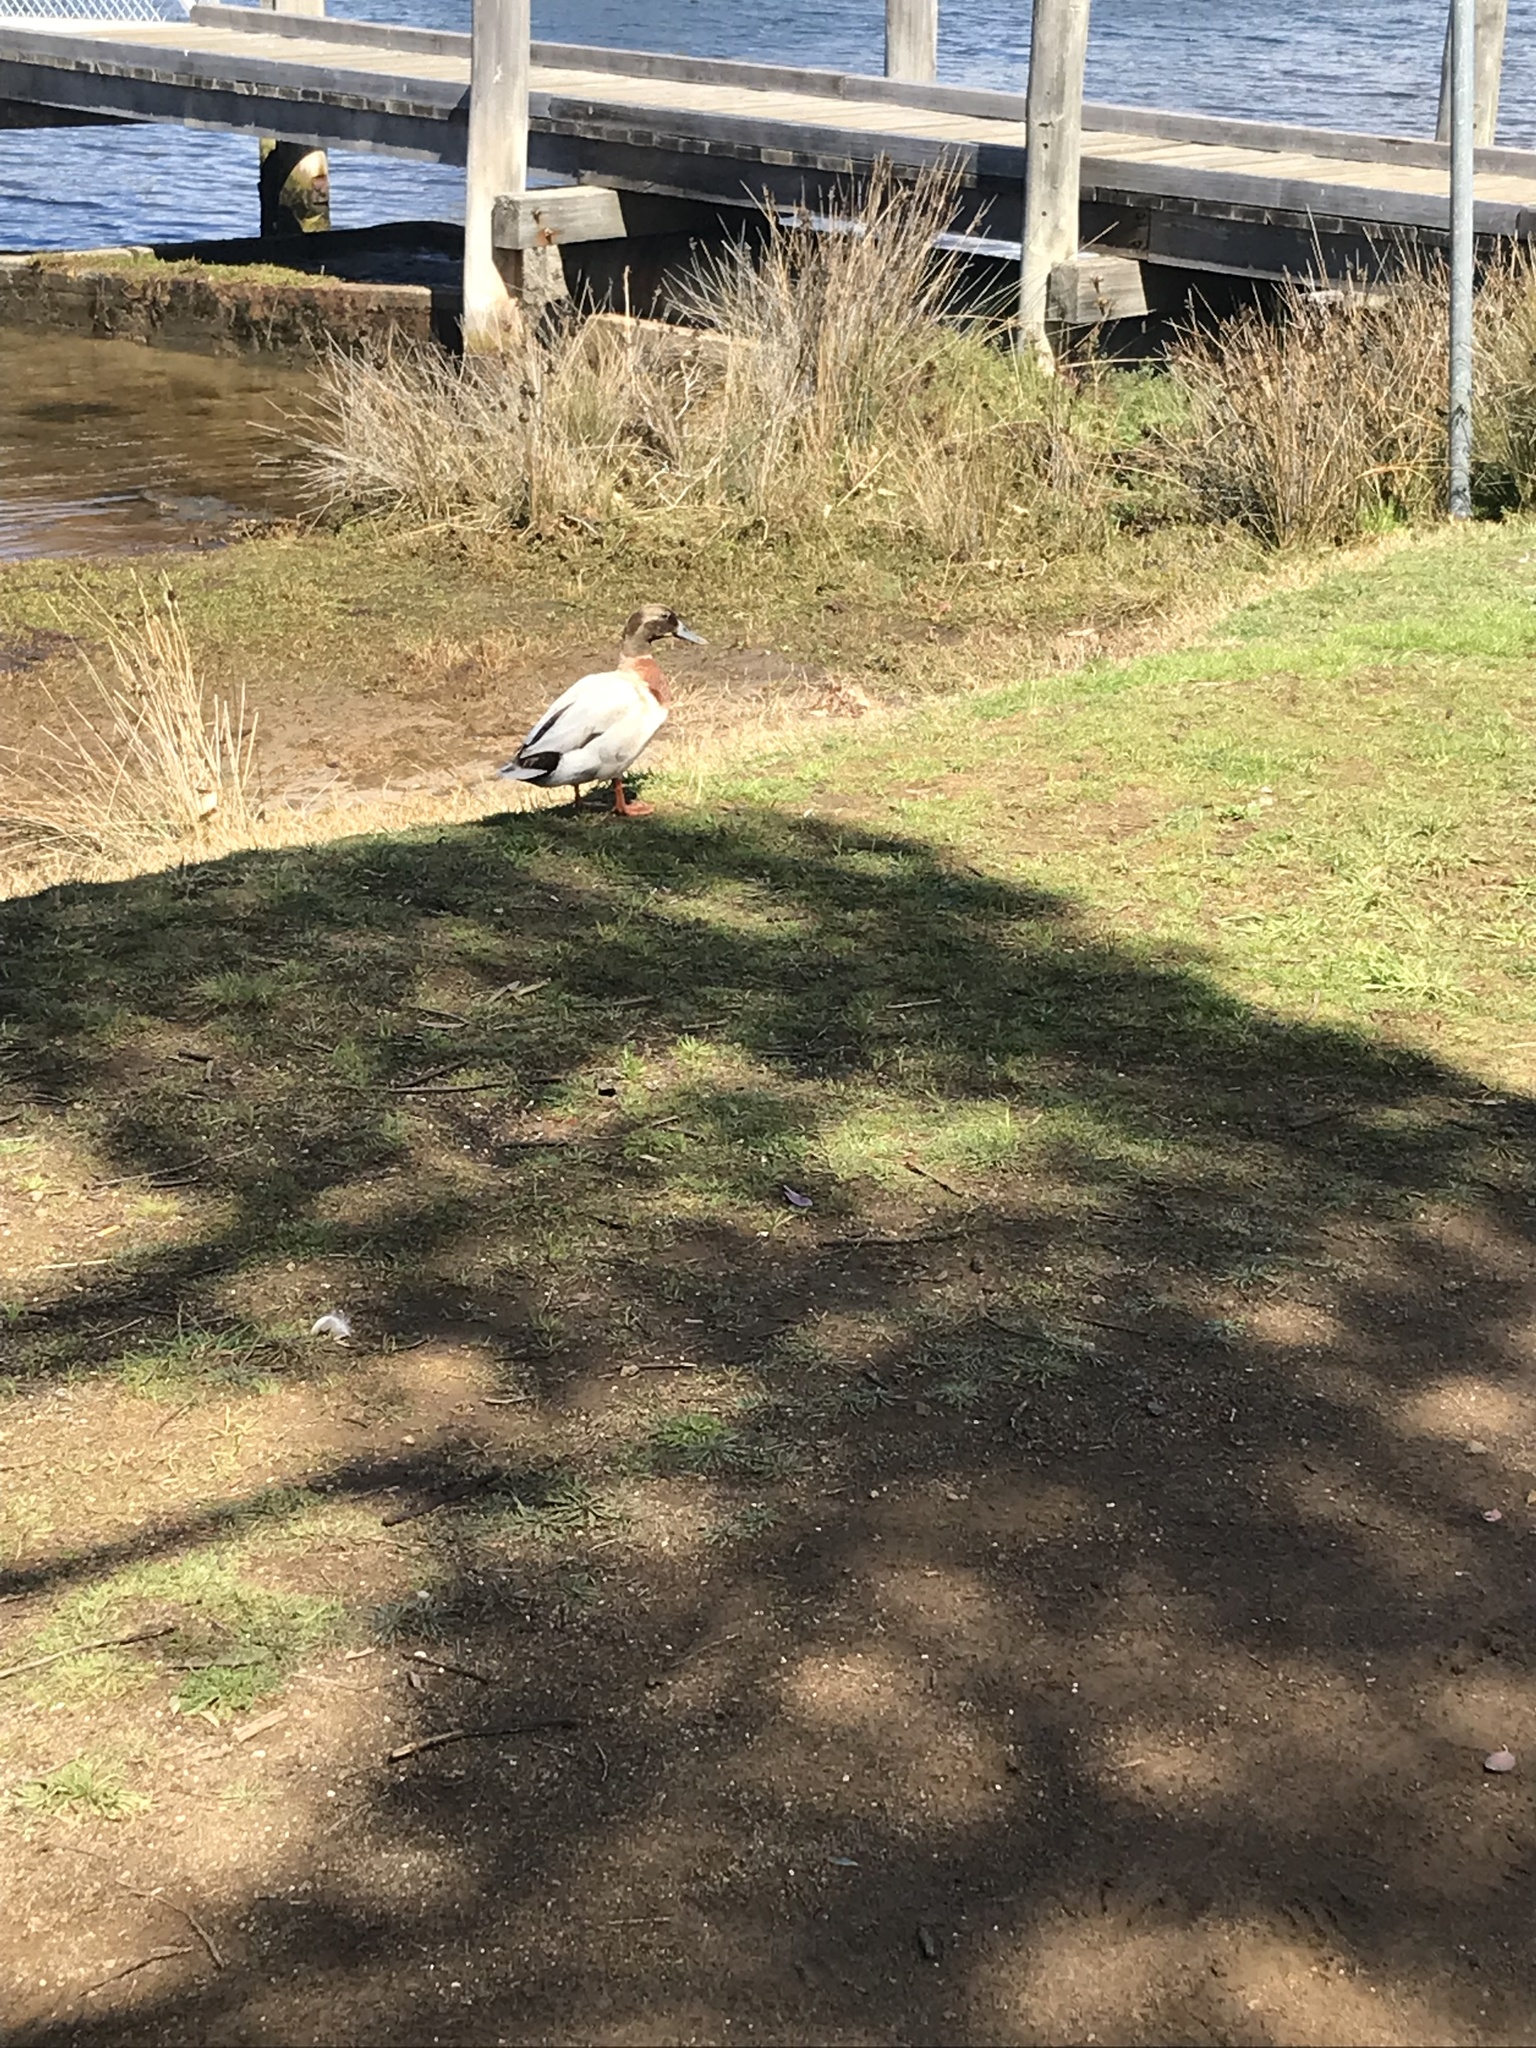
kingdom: Animalia
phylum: Chordata
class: Aves
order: Anseriformes
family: Anatidae
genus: Anas
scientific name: Anas platyrhynchos
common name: Mallard
